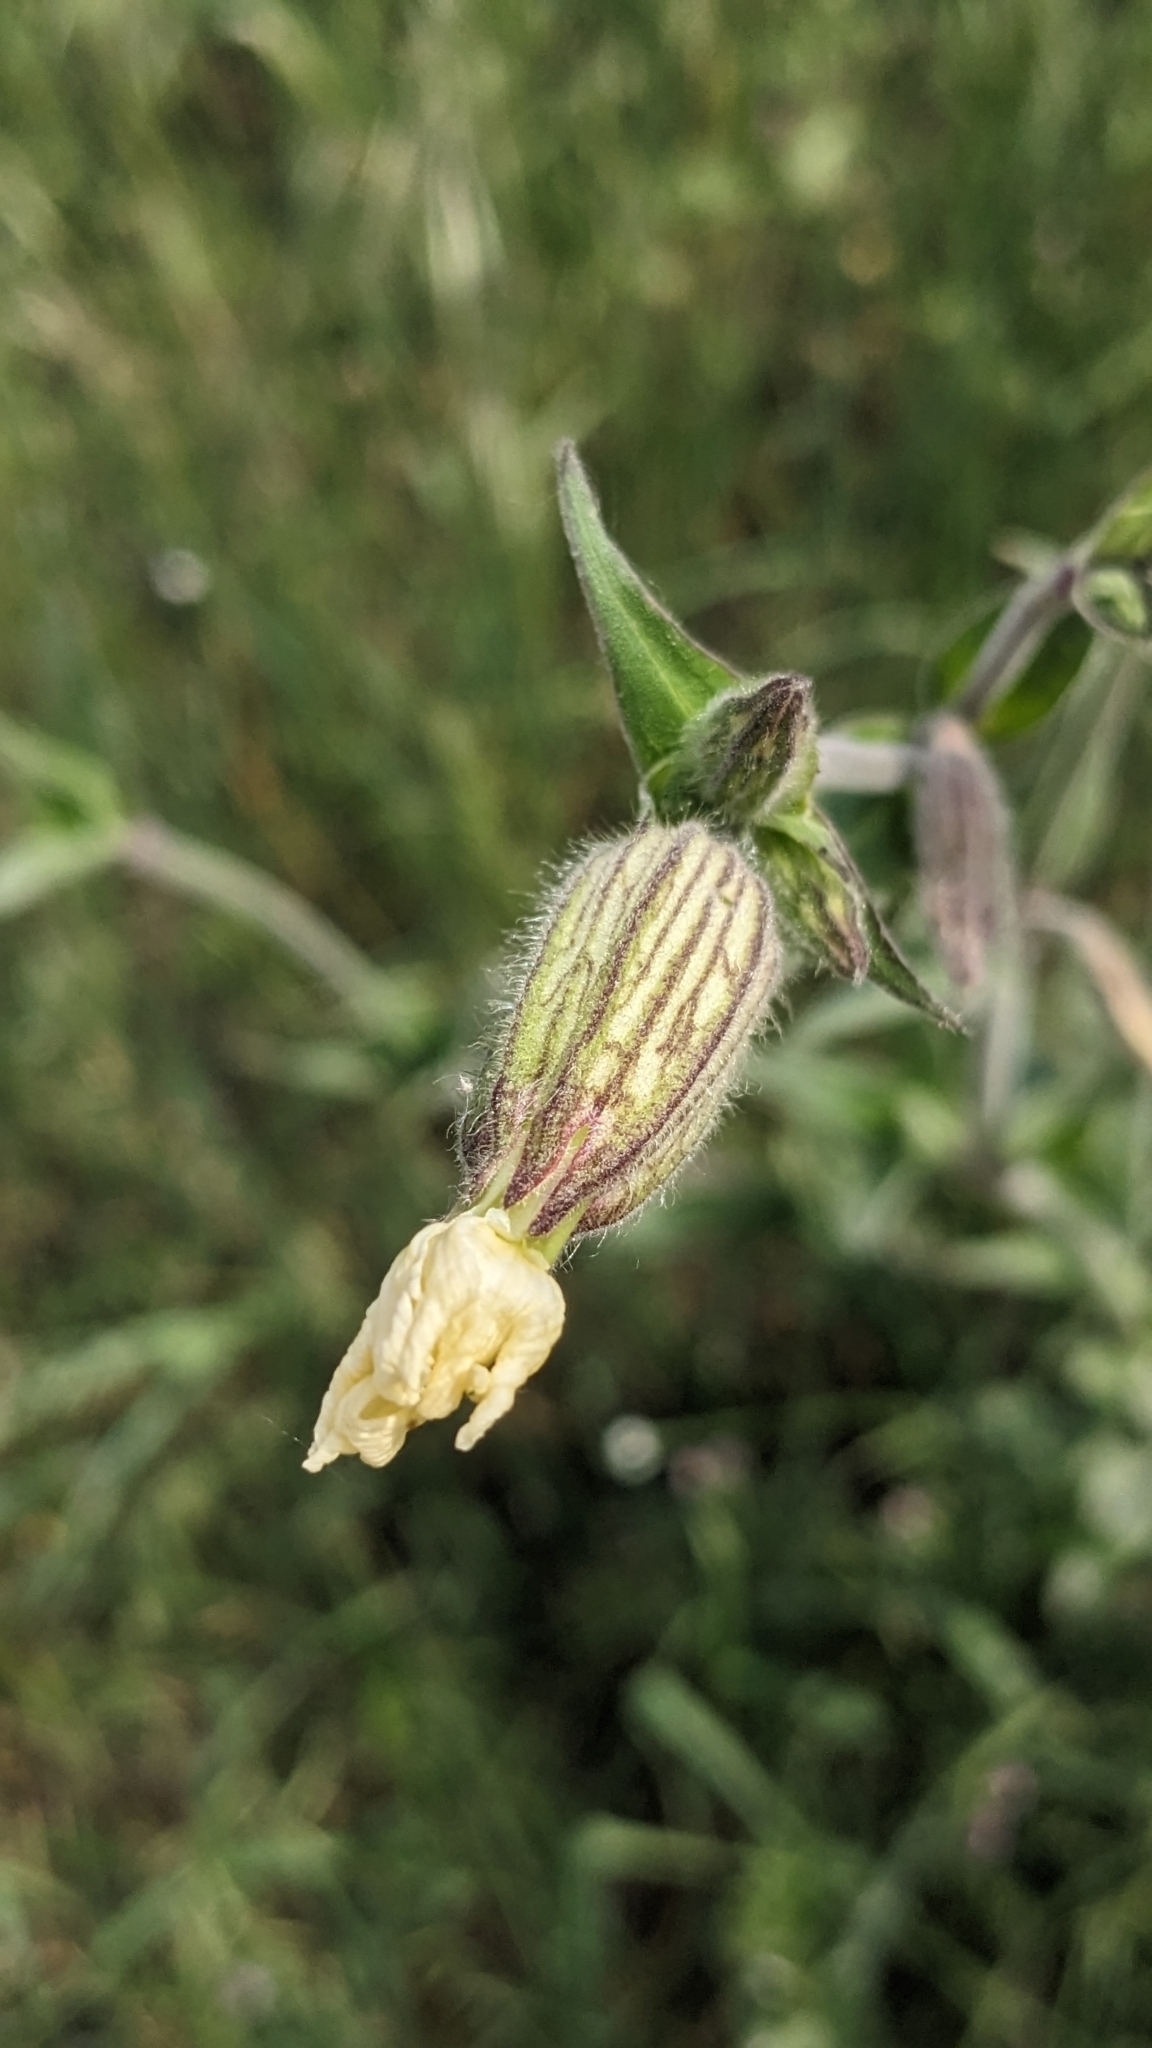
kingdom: Plantae
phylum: Tracheophyta
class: Magnoliopsida
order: Caryophyllales
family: Caryophyllaceae
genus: Silene
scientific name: Silene latifolia
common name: White campion
